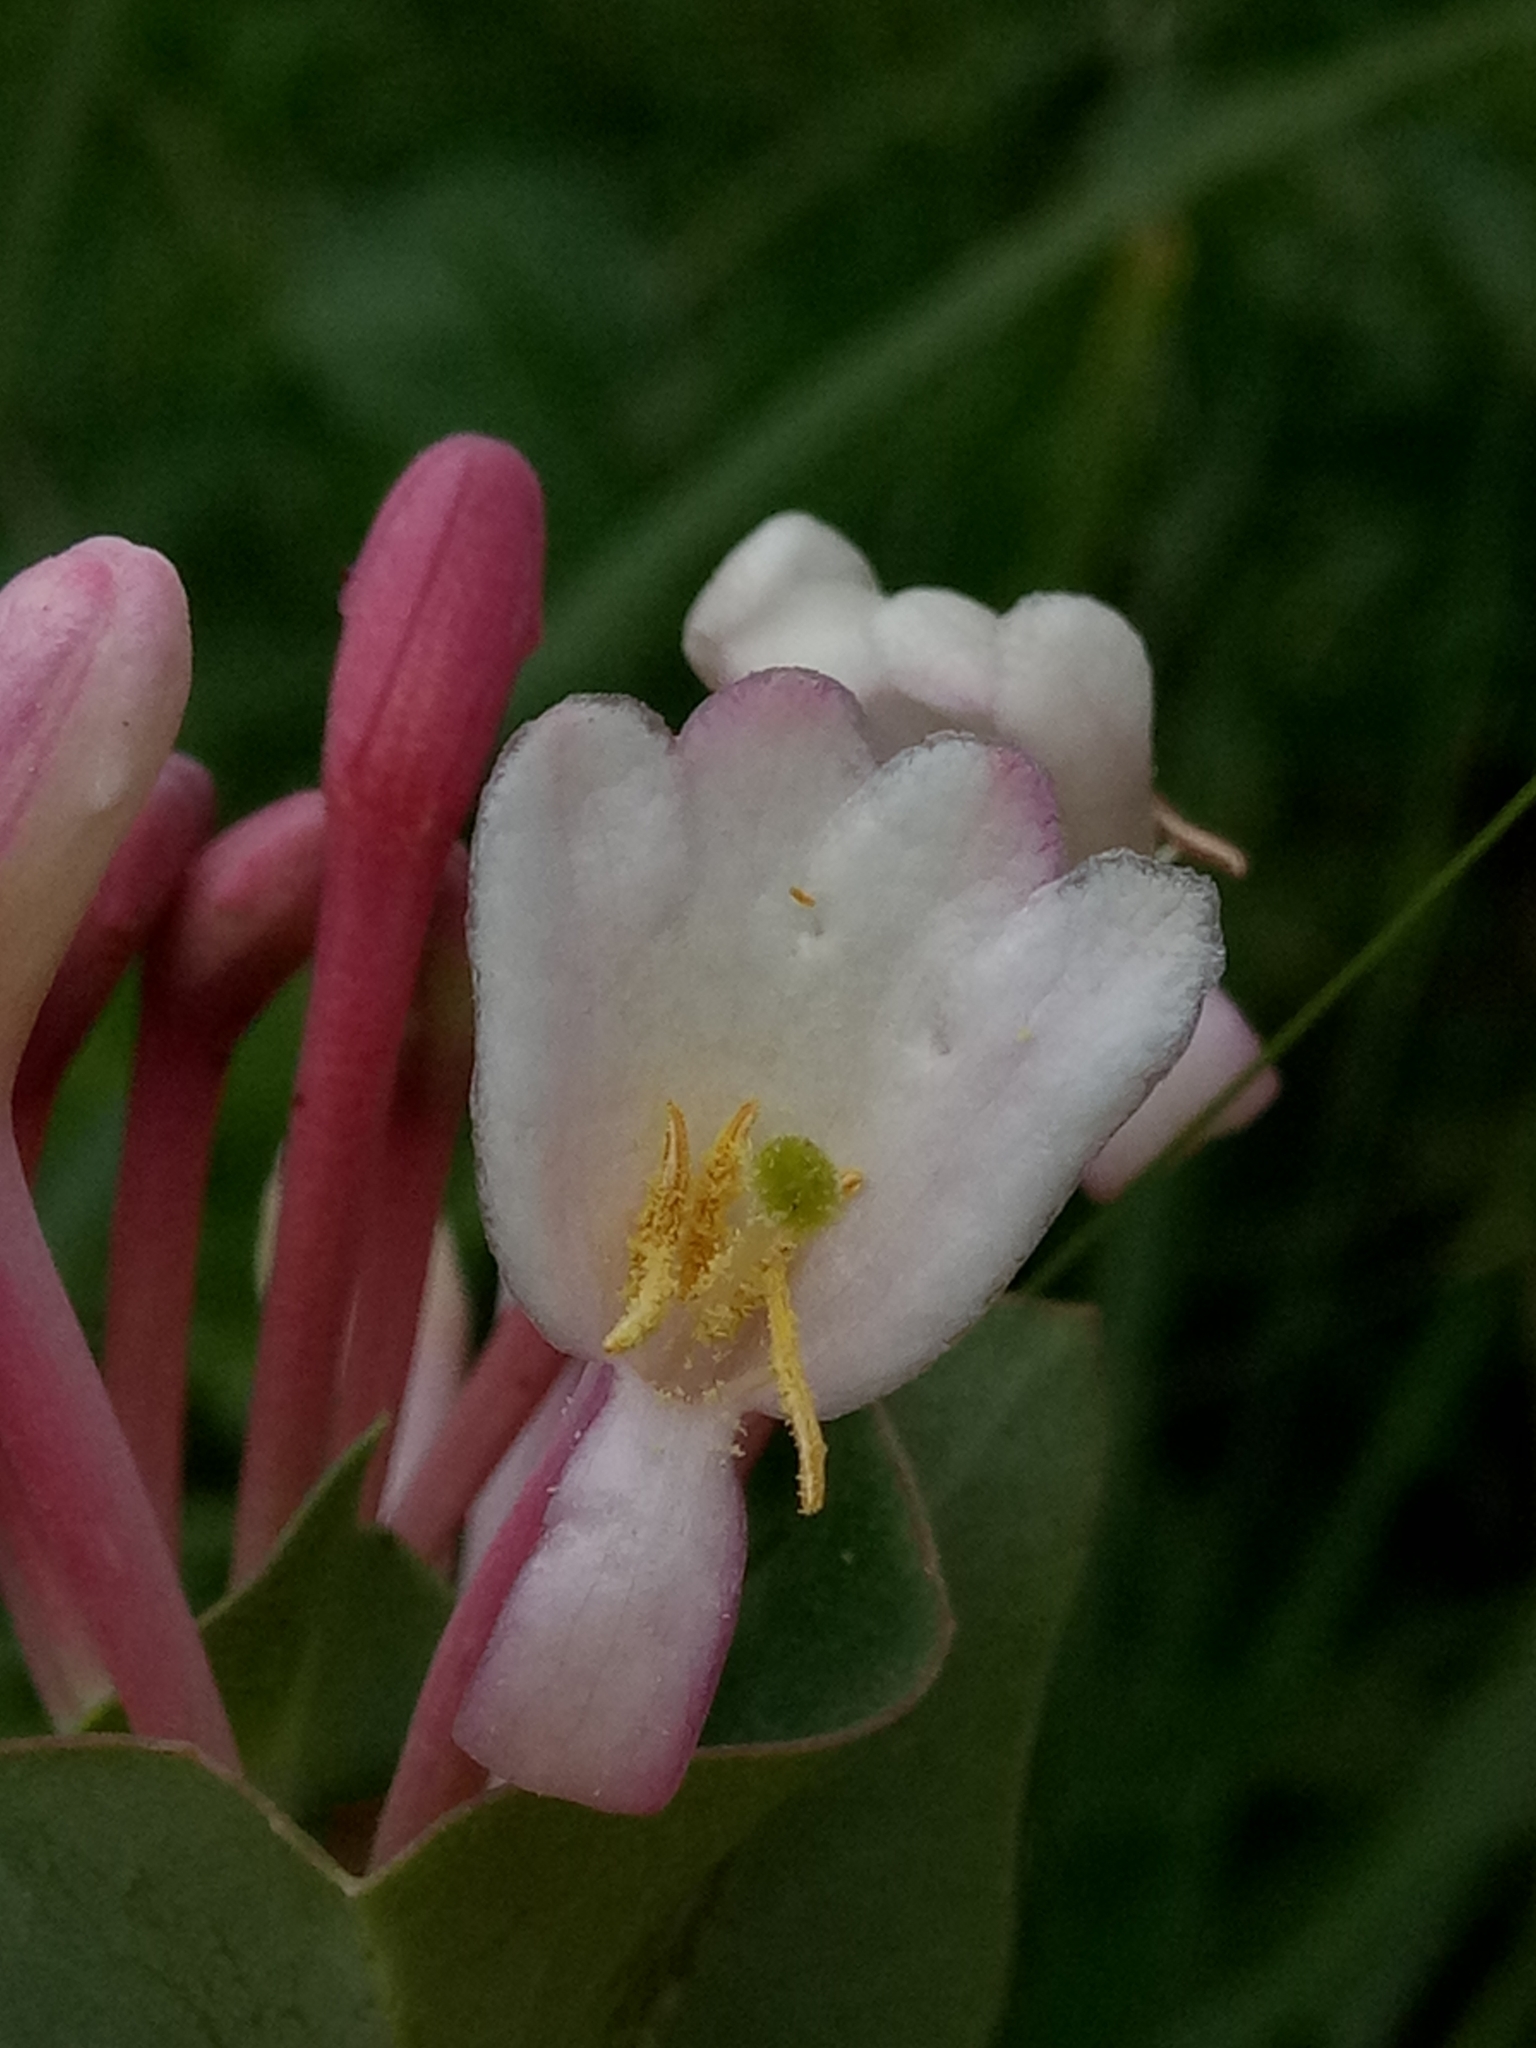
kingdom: Plantae
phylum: Tracheophyta
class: Magnoliopsida
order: Dipsacales
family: Caprifoliaceae
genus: Lonicera
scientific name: Lonicera implexa
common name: Minorca honeysuckle
